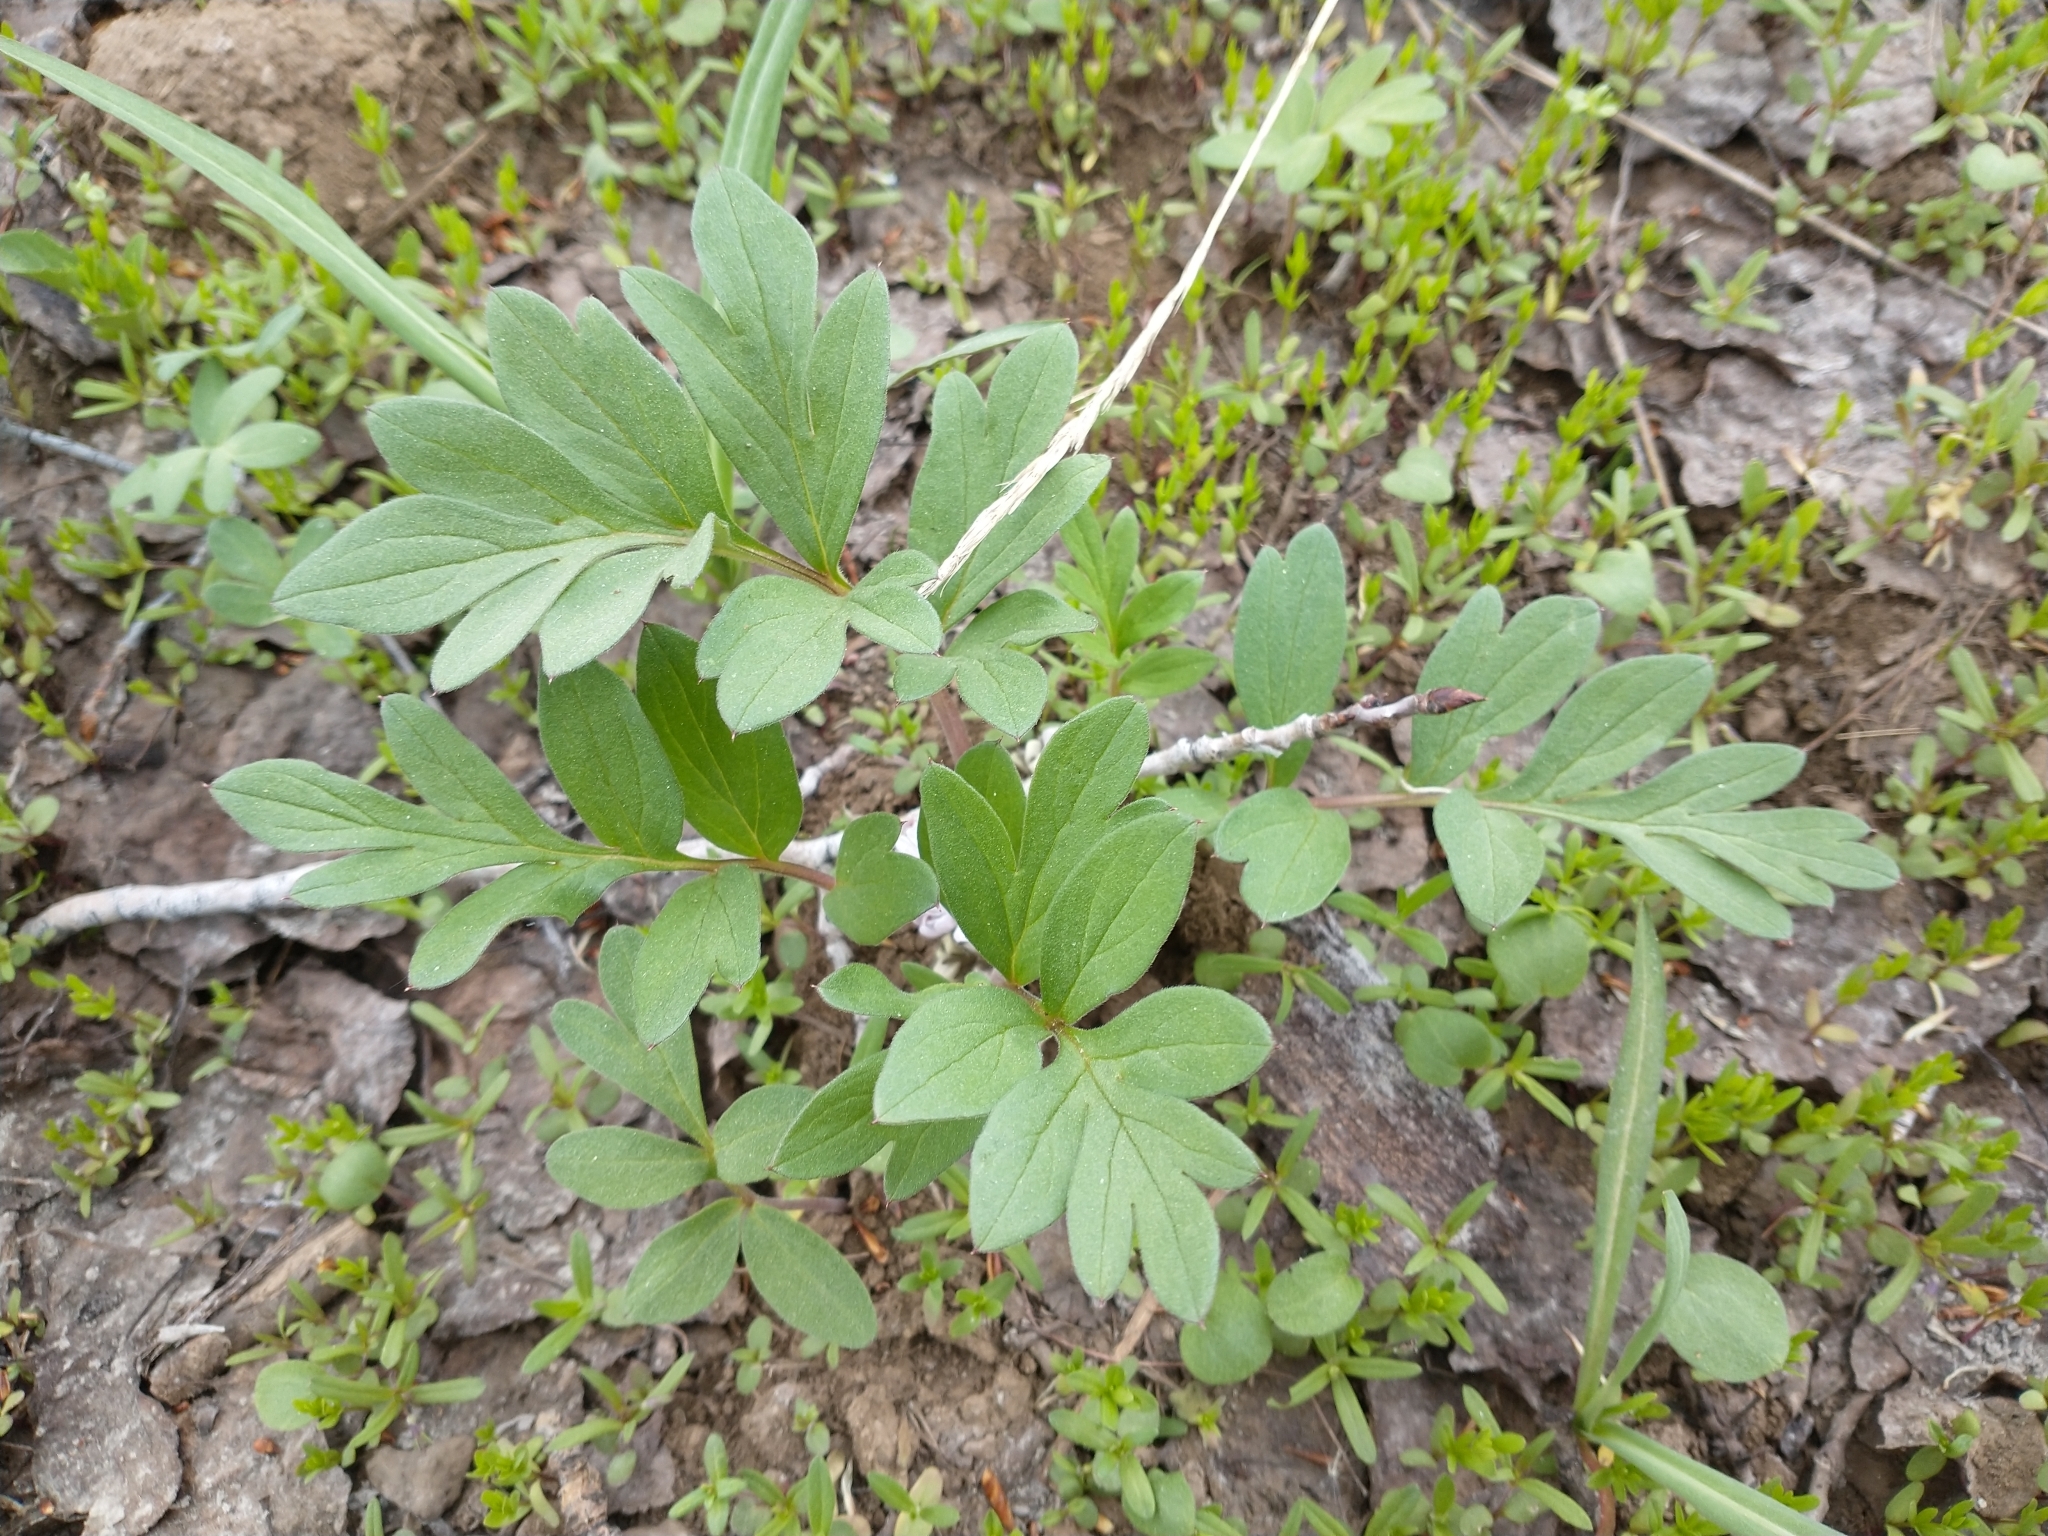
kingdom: Plantae
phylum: Tracheophyta
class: Magnoliopsida
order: Boraginales
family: Hydrophyllaceae
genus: Hydrophyllum
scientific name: Hydrophyllum alpestre
